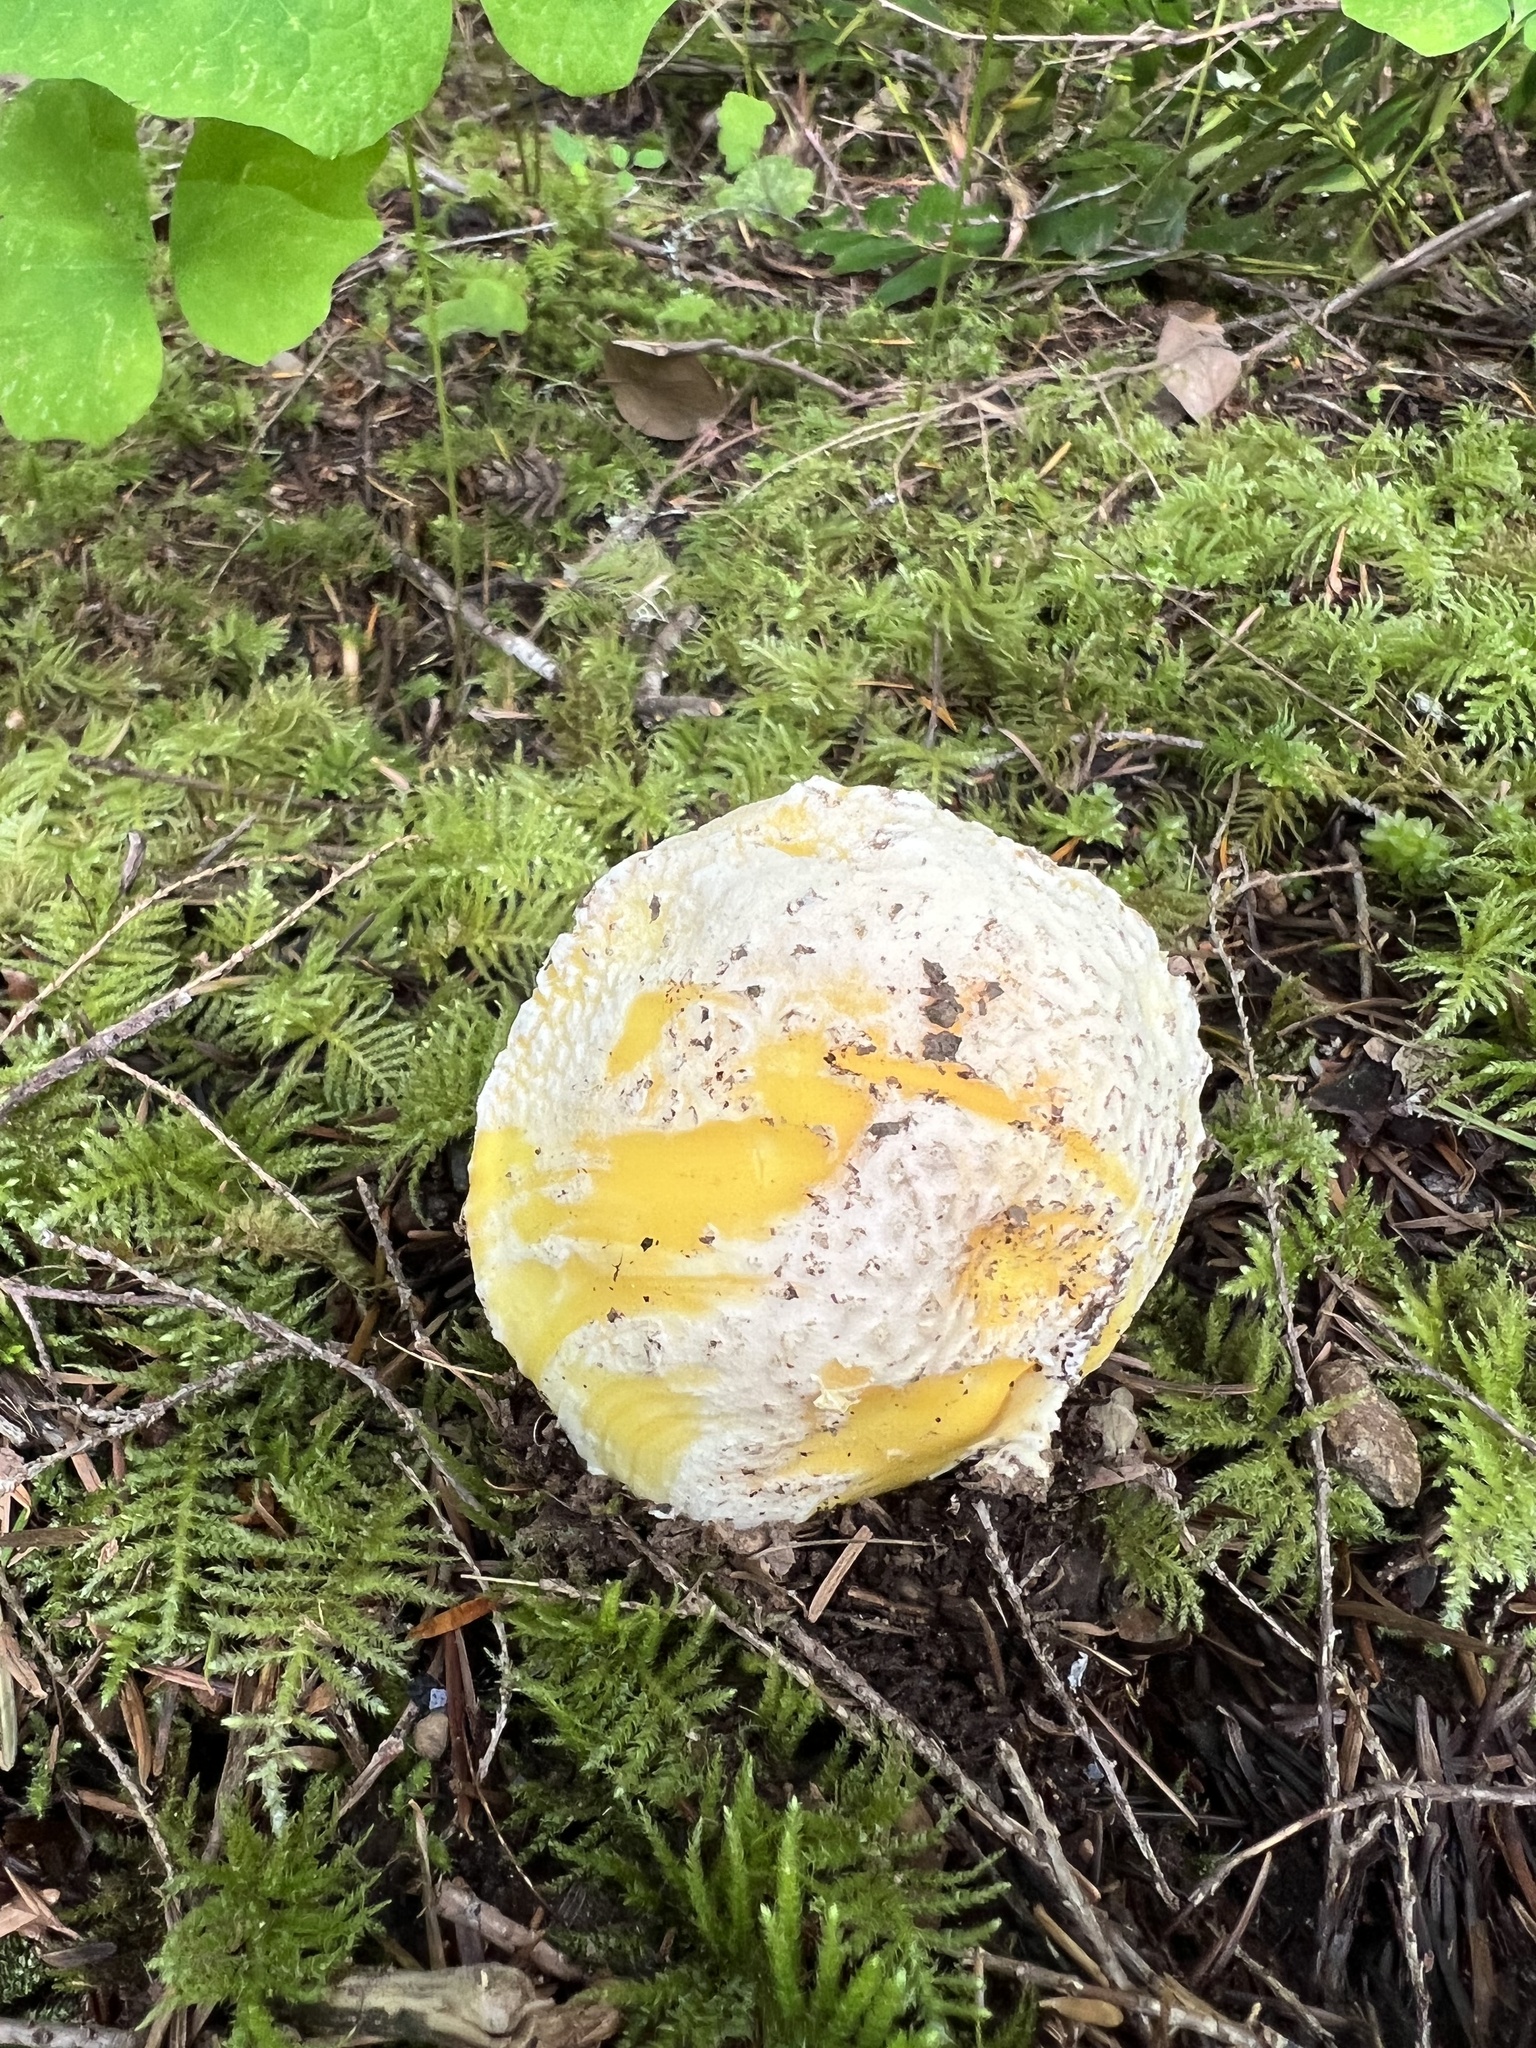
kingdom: Fungi
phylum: Basidiomycota
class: Agaricomycetes
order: Agaricales
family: Amanitaceae
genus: Amanita
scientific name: Amanita aprica
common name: Sunshine amanita
